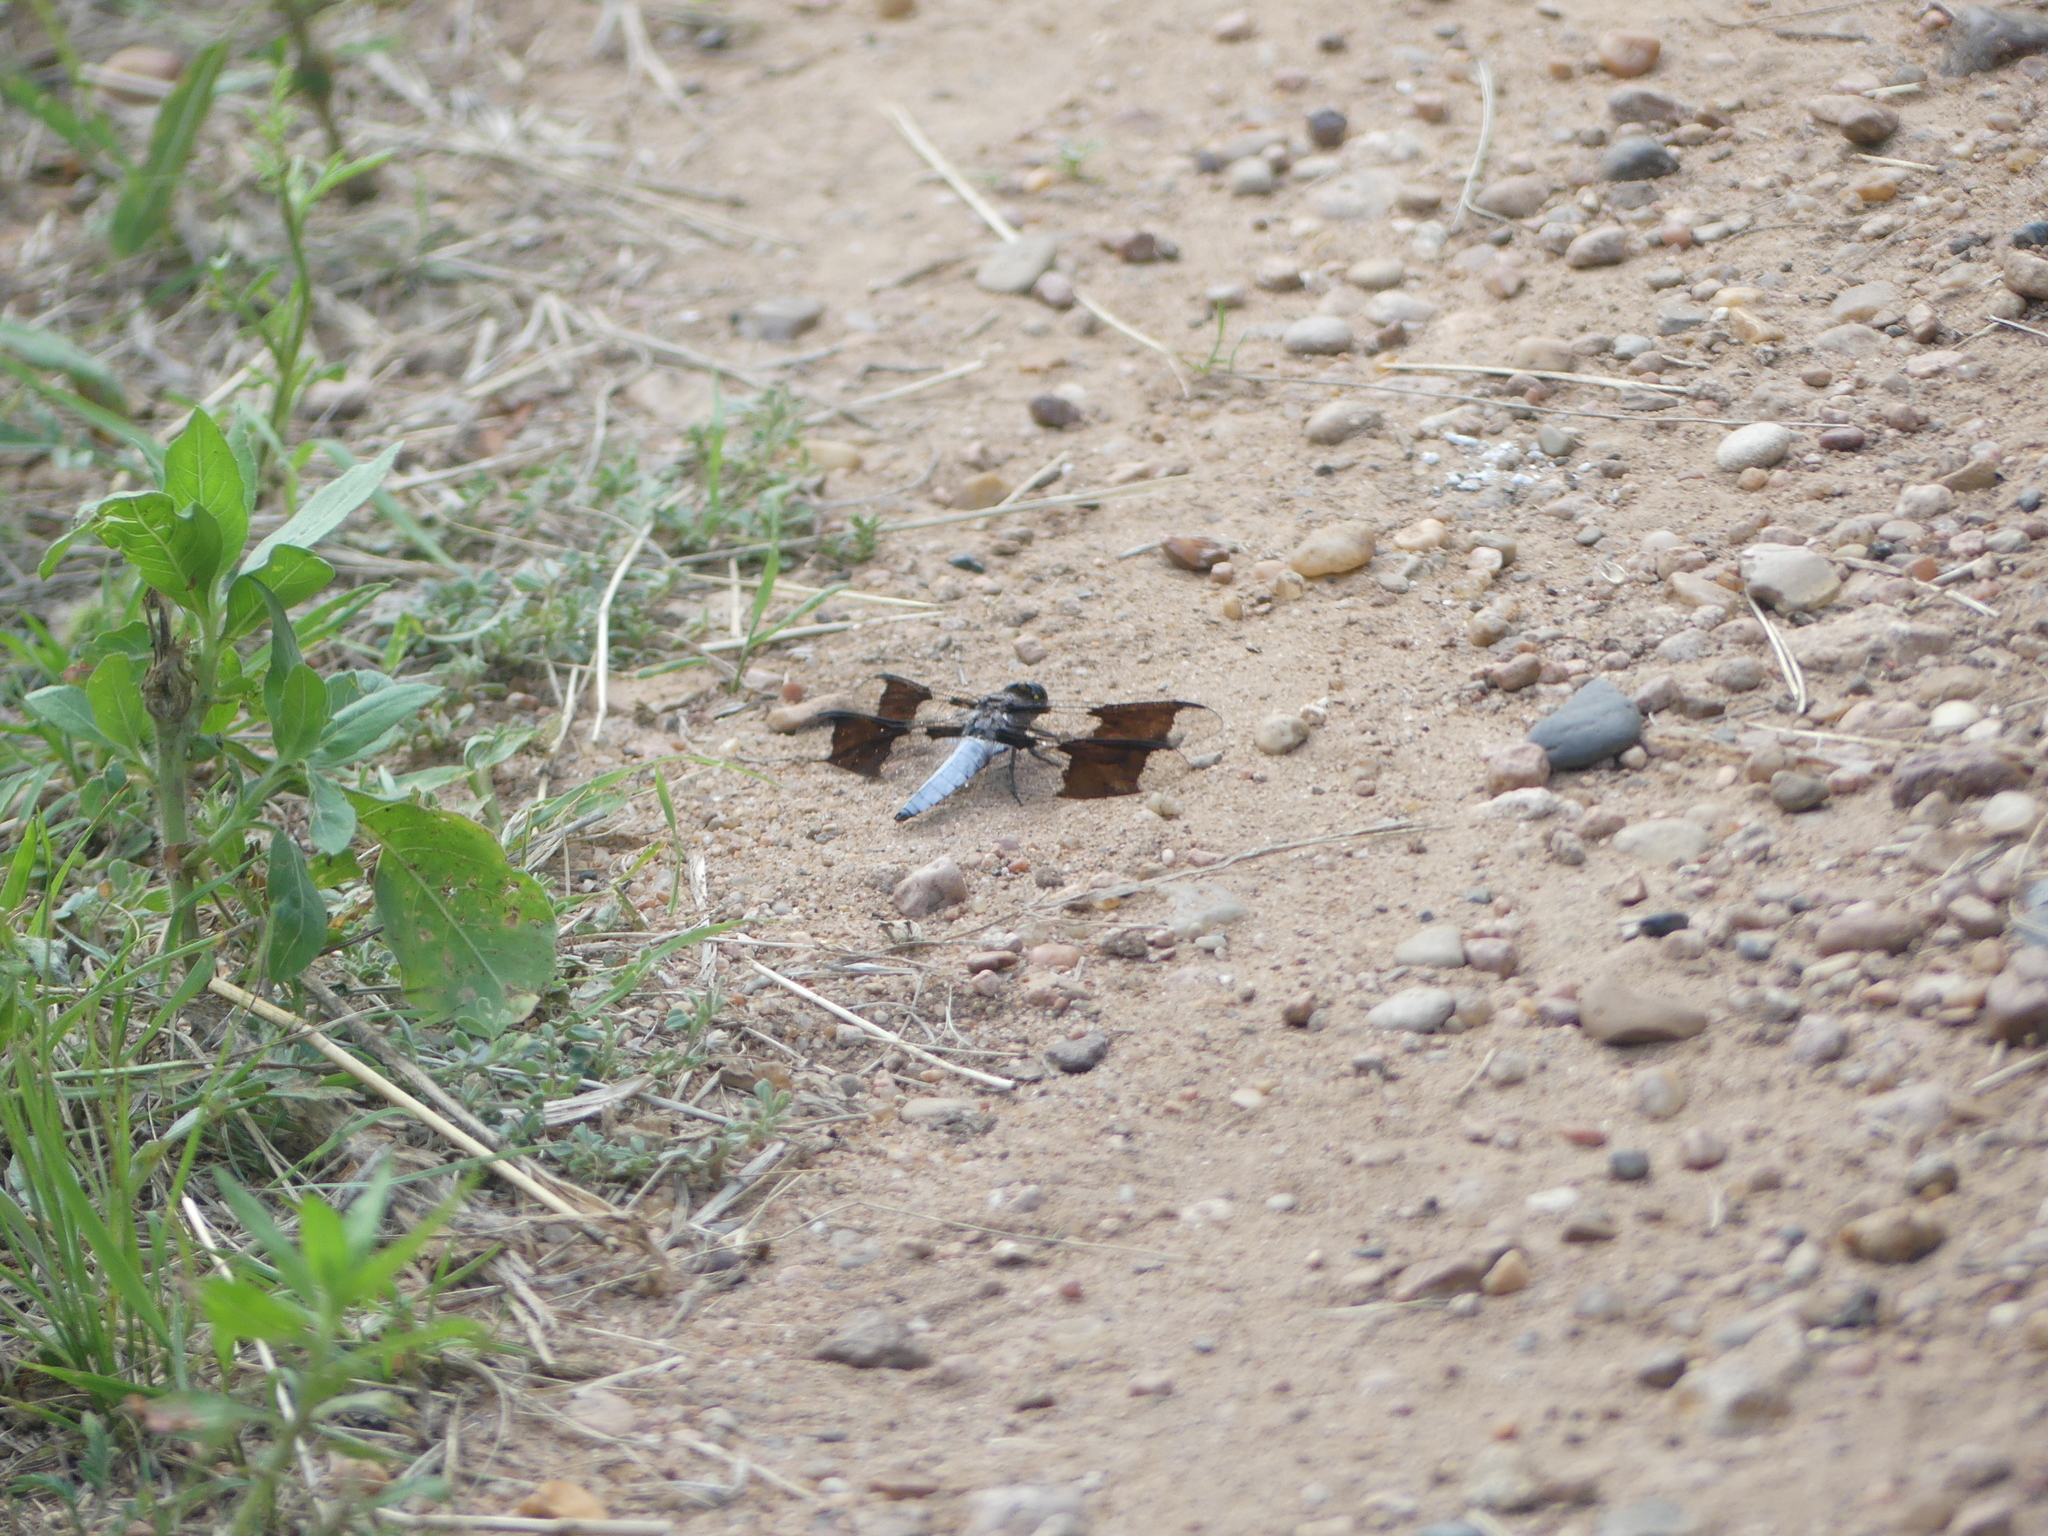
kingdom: Animalia
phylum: Arthropoda
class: Insecta
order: Odonata
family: Libellulidae
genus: Plathemis
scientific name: Plathemis lydia
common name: Common whitetail
